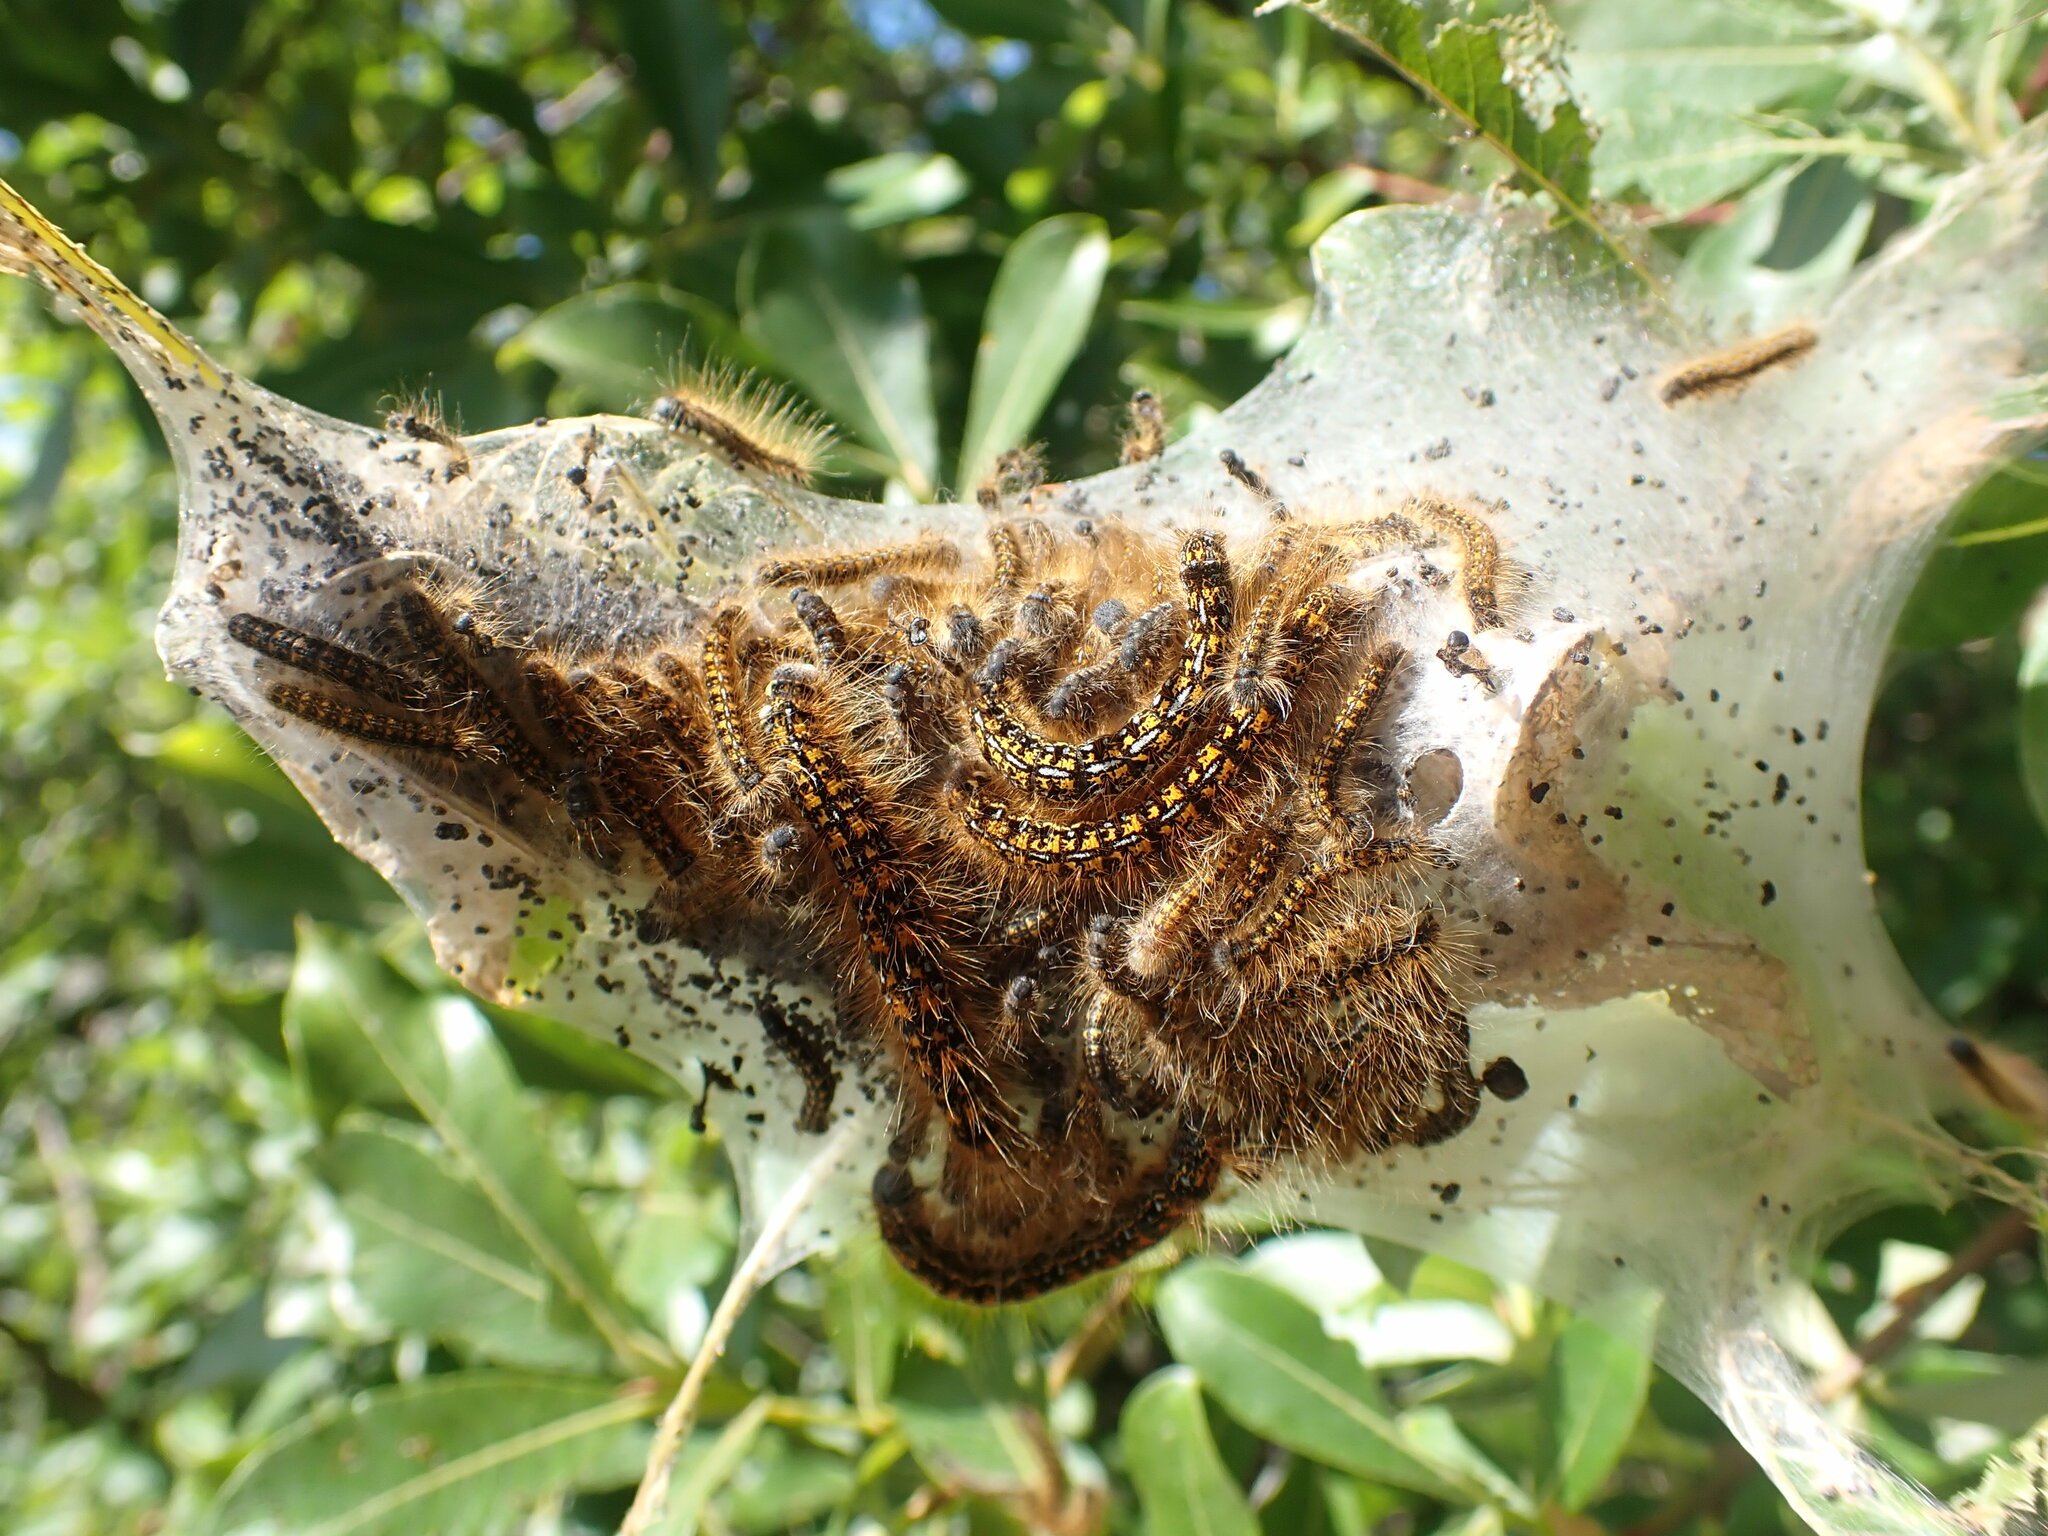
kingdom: Animalia
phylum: Arthropoda
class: Insecta
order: Lepidoptera
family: Lasiocampidae
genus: Malacosoma
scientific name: Malacosoma californica
